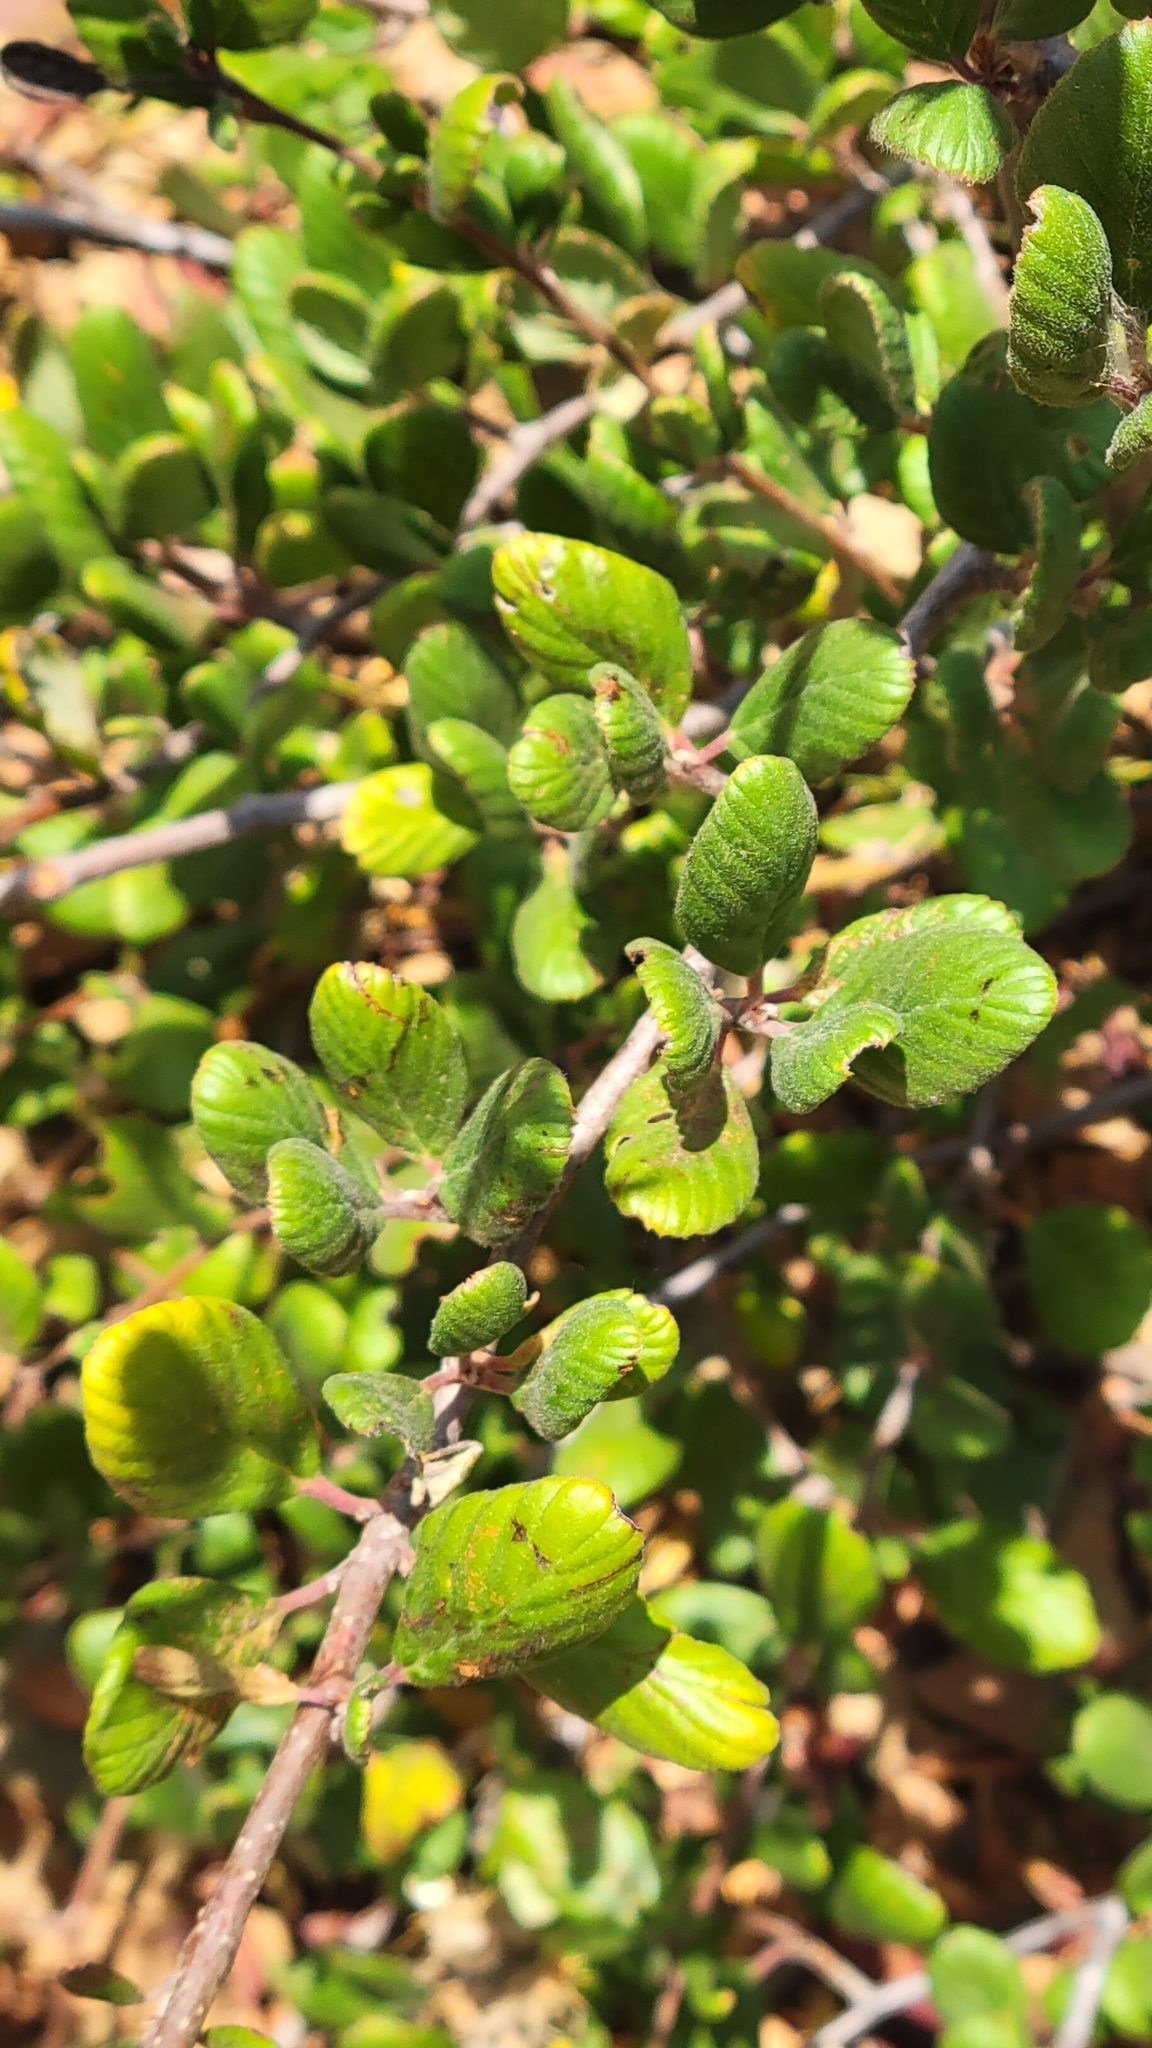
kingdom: Plantae
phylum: Tracheophyta
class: Magnoliopsida
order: Rosales
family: Rosaceae
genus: Cercocarpus
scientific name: Cercocarpus betuloides
